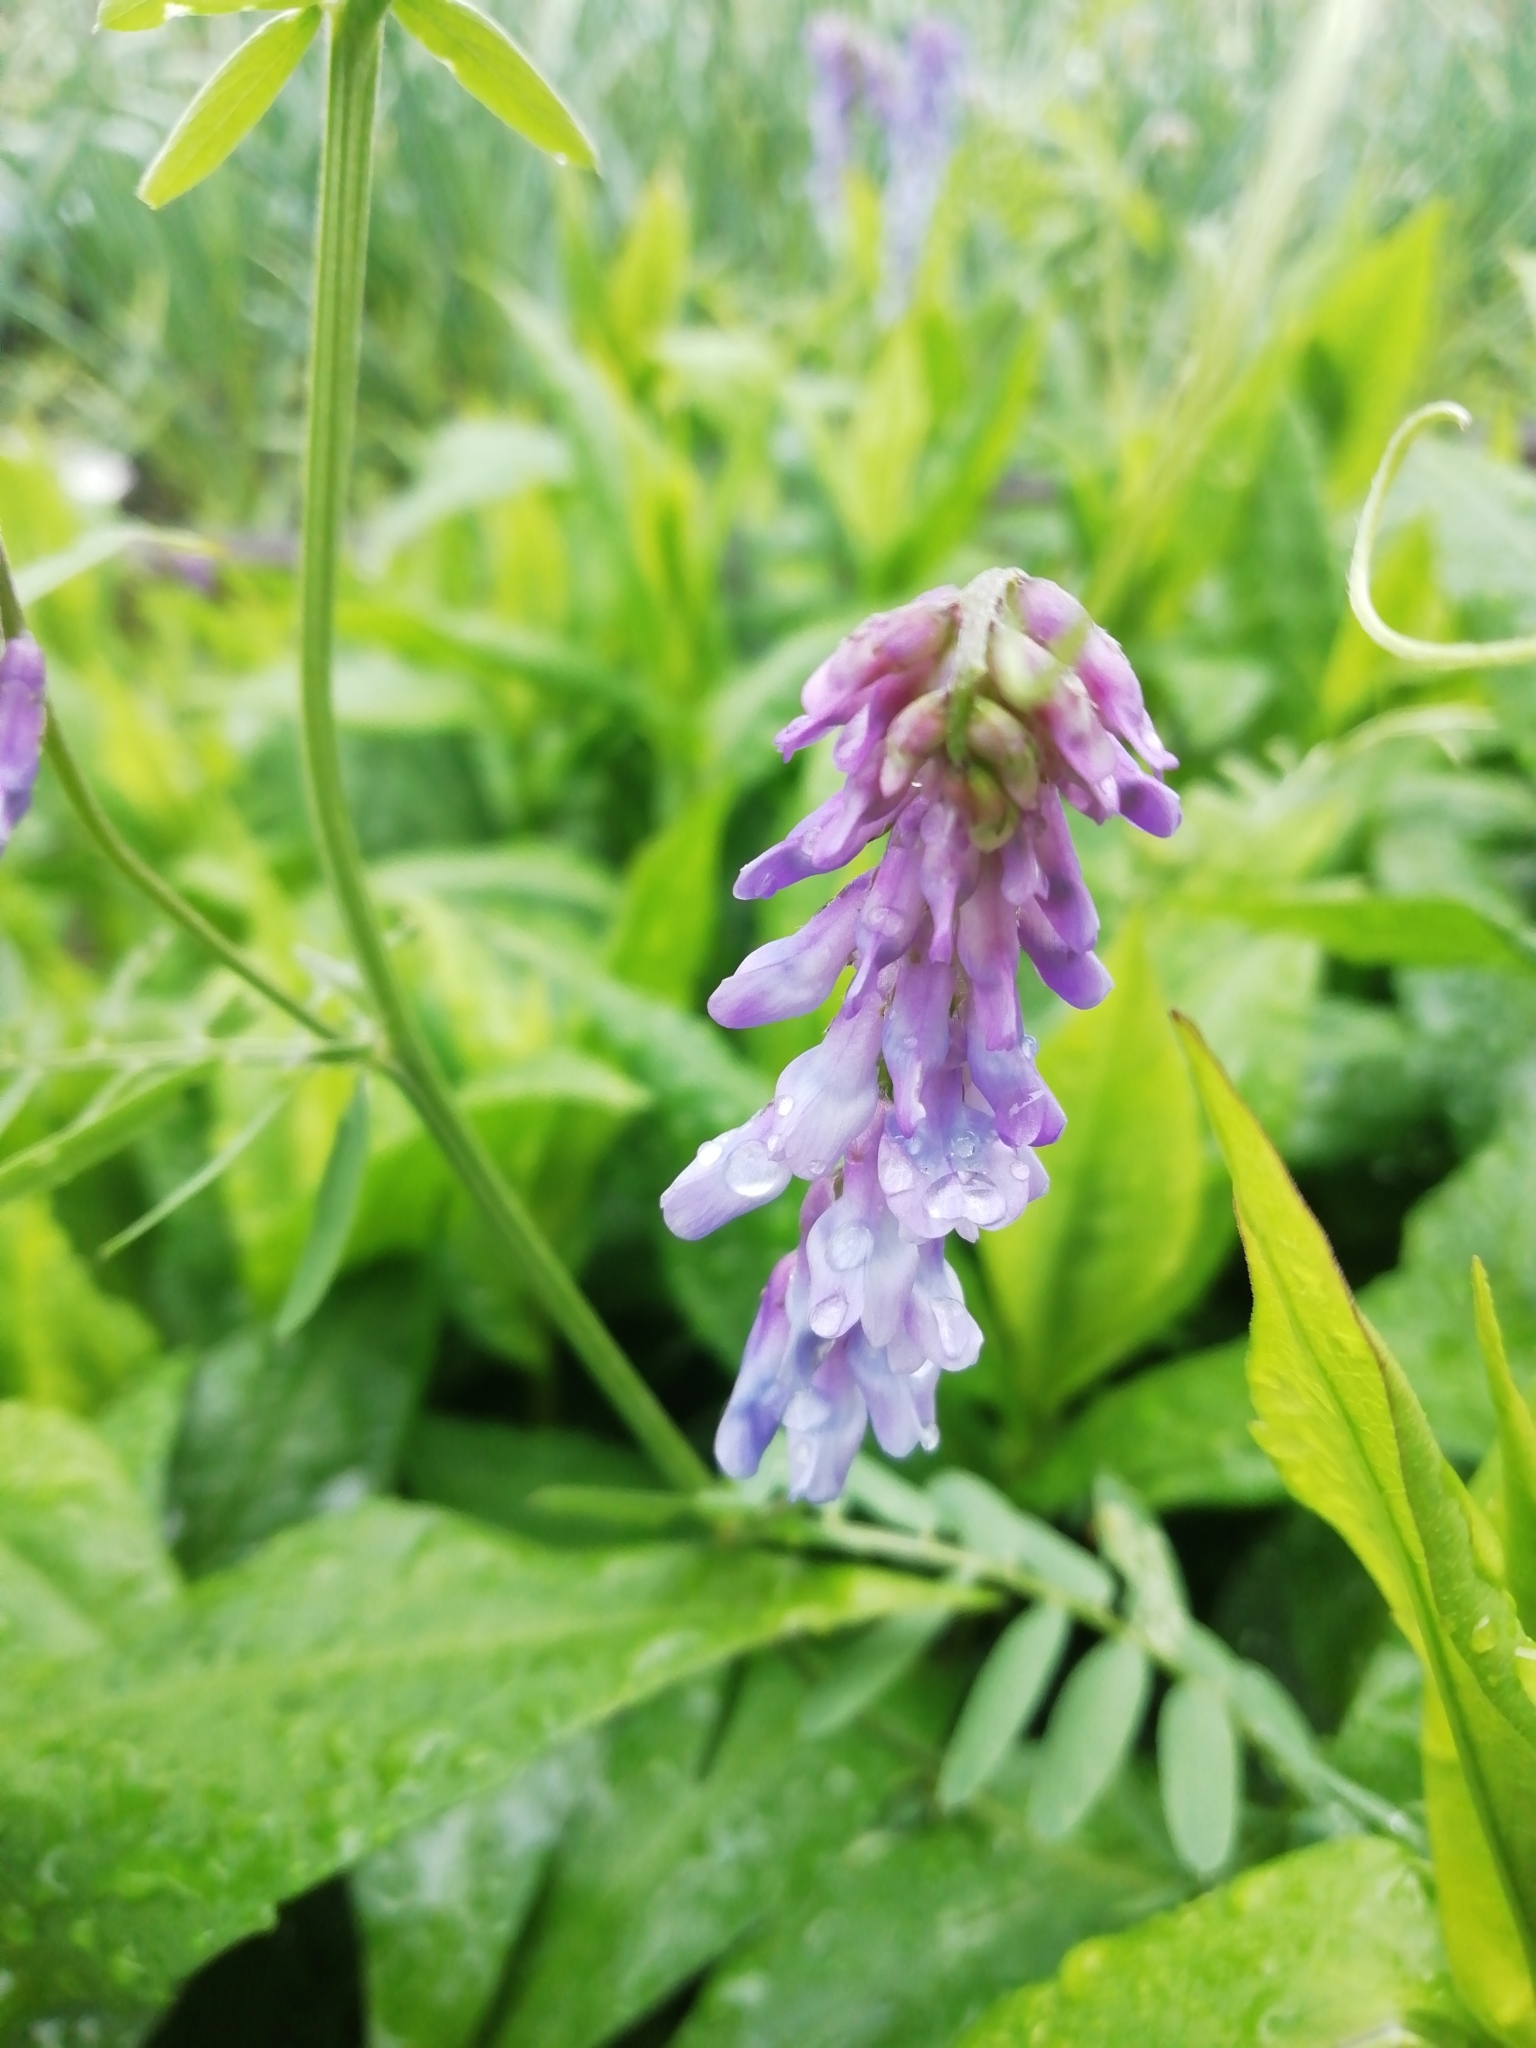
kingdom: Plantae
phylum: Tracheophyta
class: Magnoliopsida
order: Fabales
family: Fabaceae
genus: Vicia
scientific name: Vicia cracca
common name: Bird vetch
